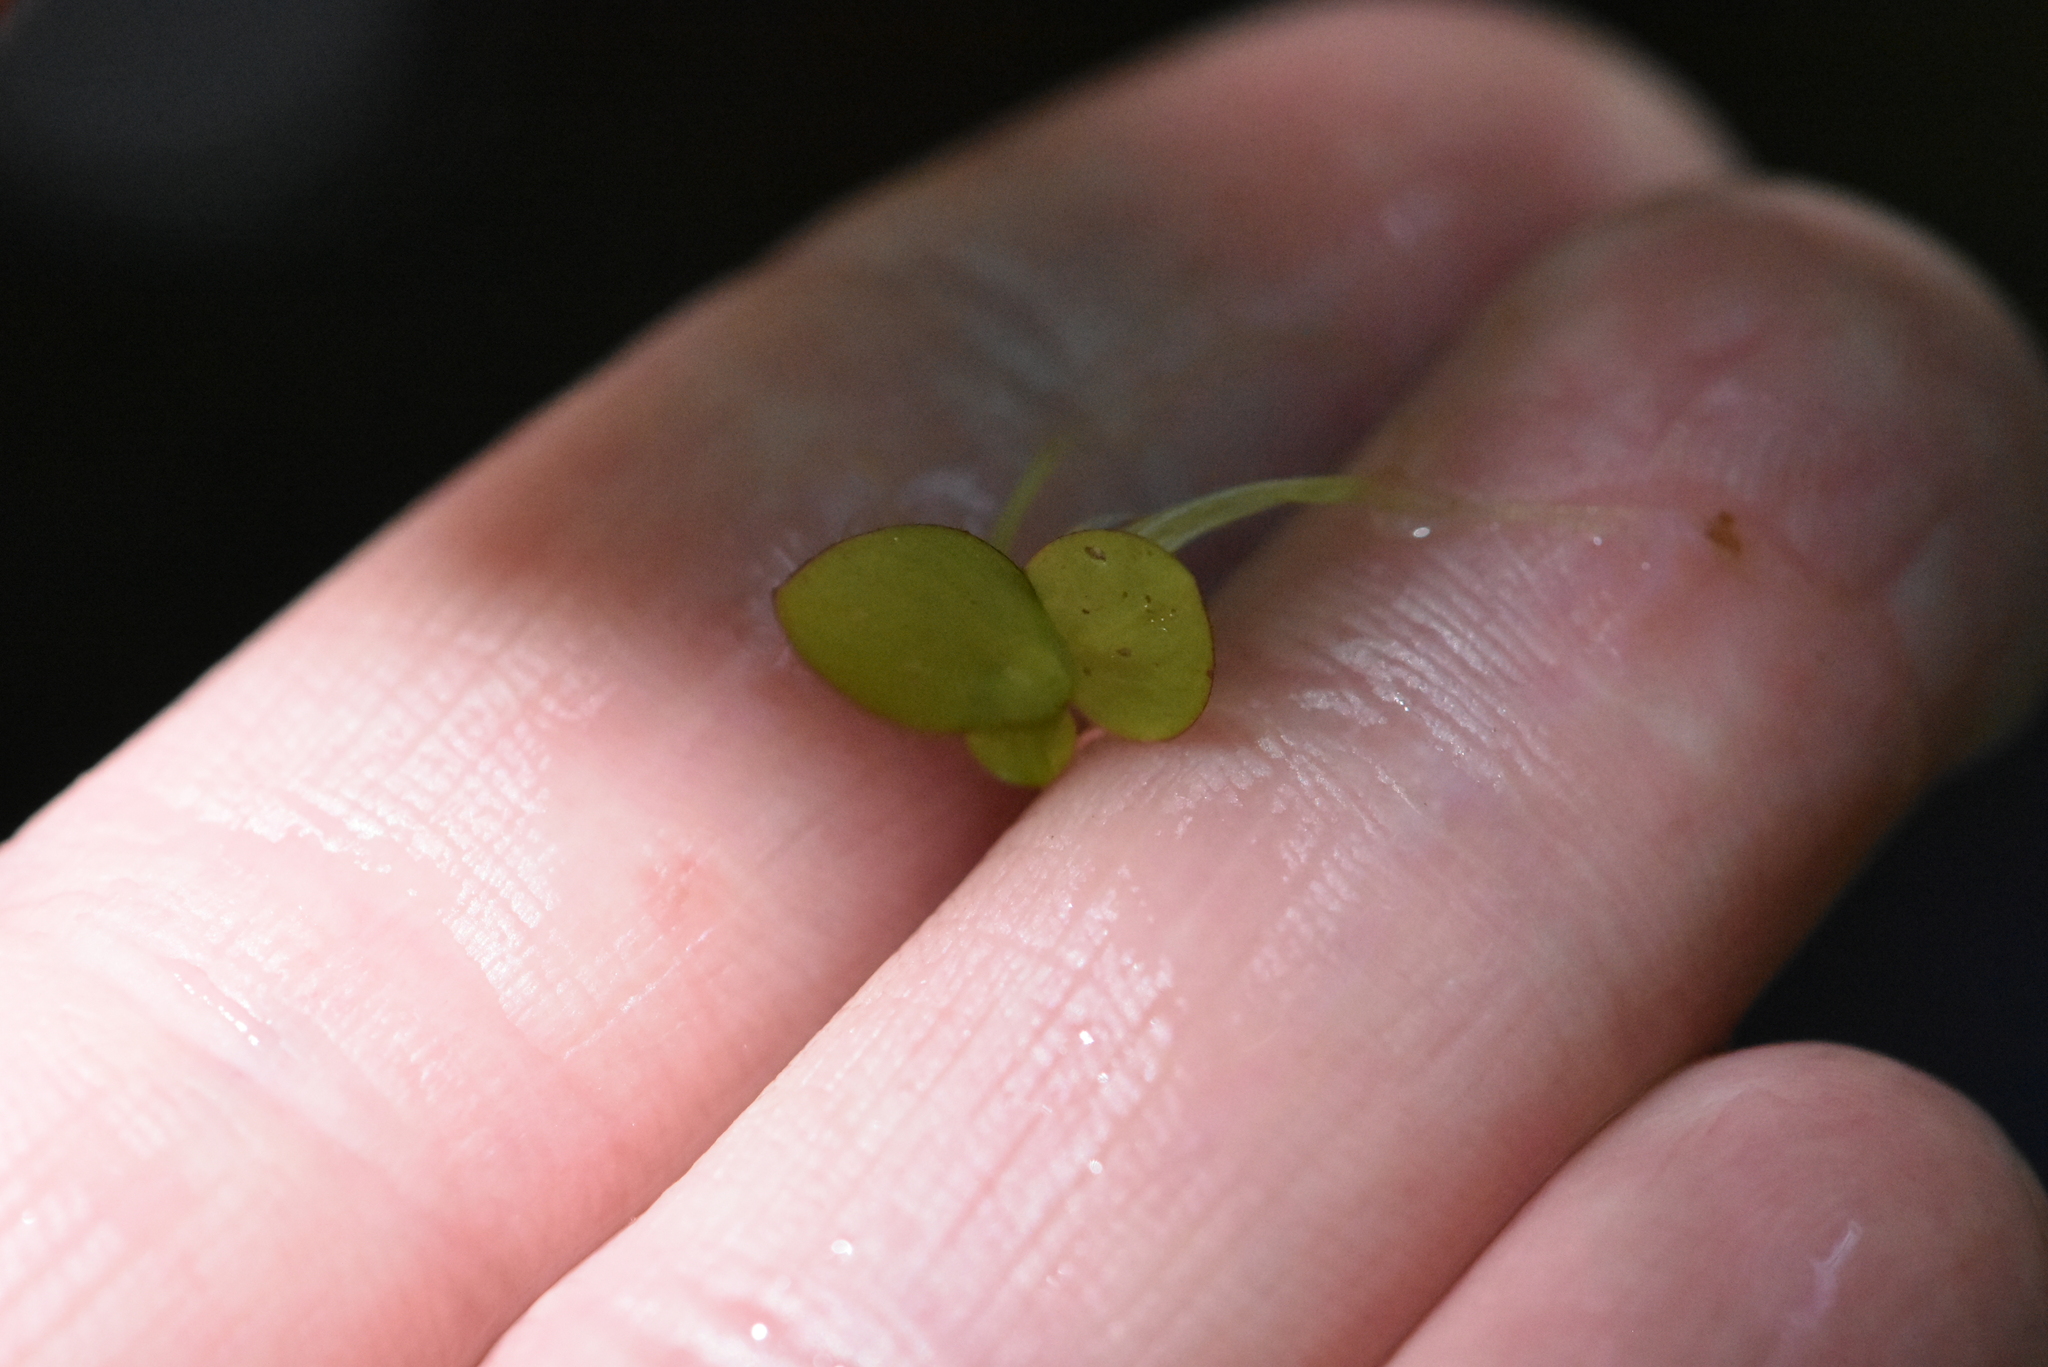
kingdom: Plantae
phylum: Tracheophyta
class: Liliopsida
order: Alismatales
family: Araceae
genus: Spirodela
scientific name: Spirodela polyrhiza
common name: Great duckweed
